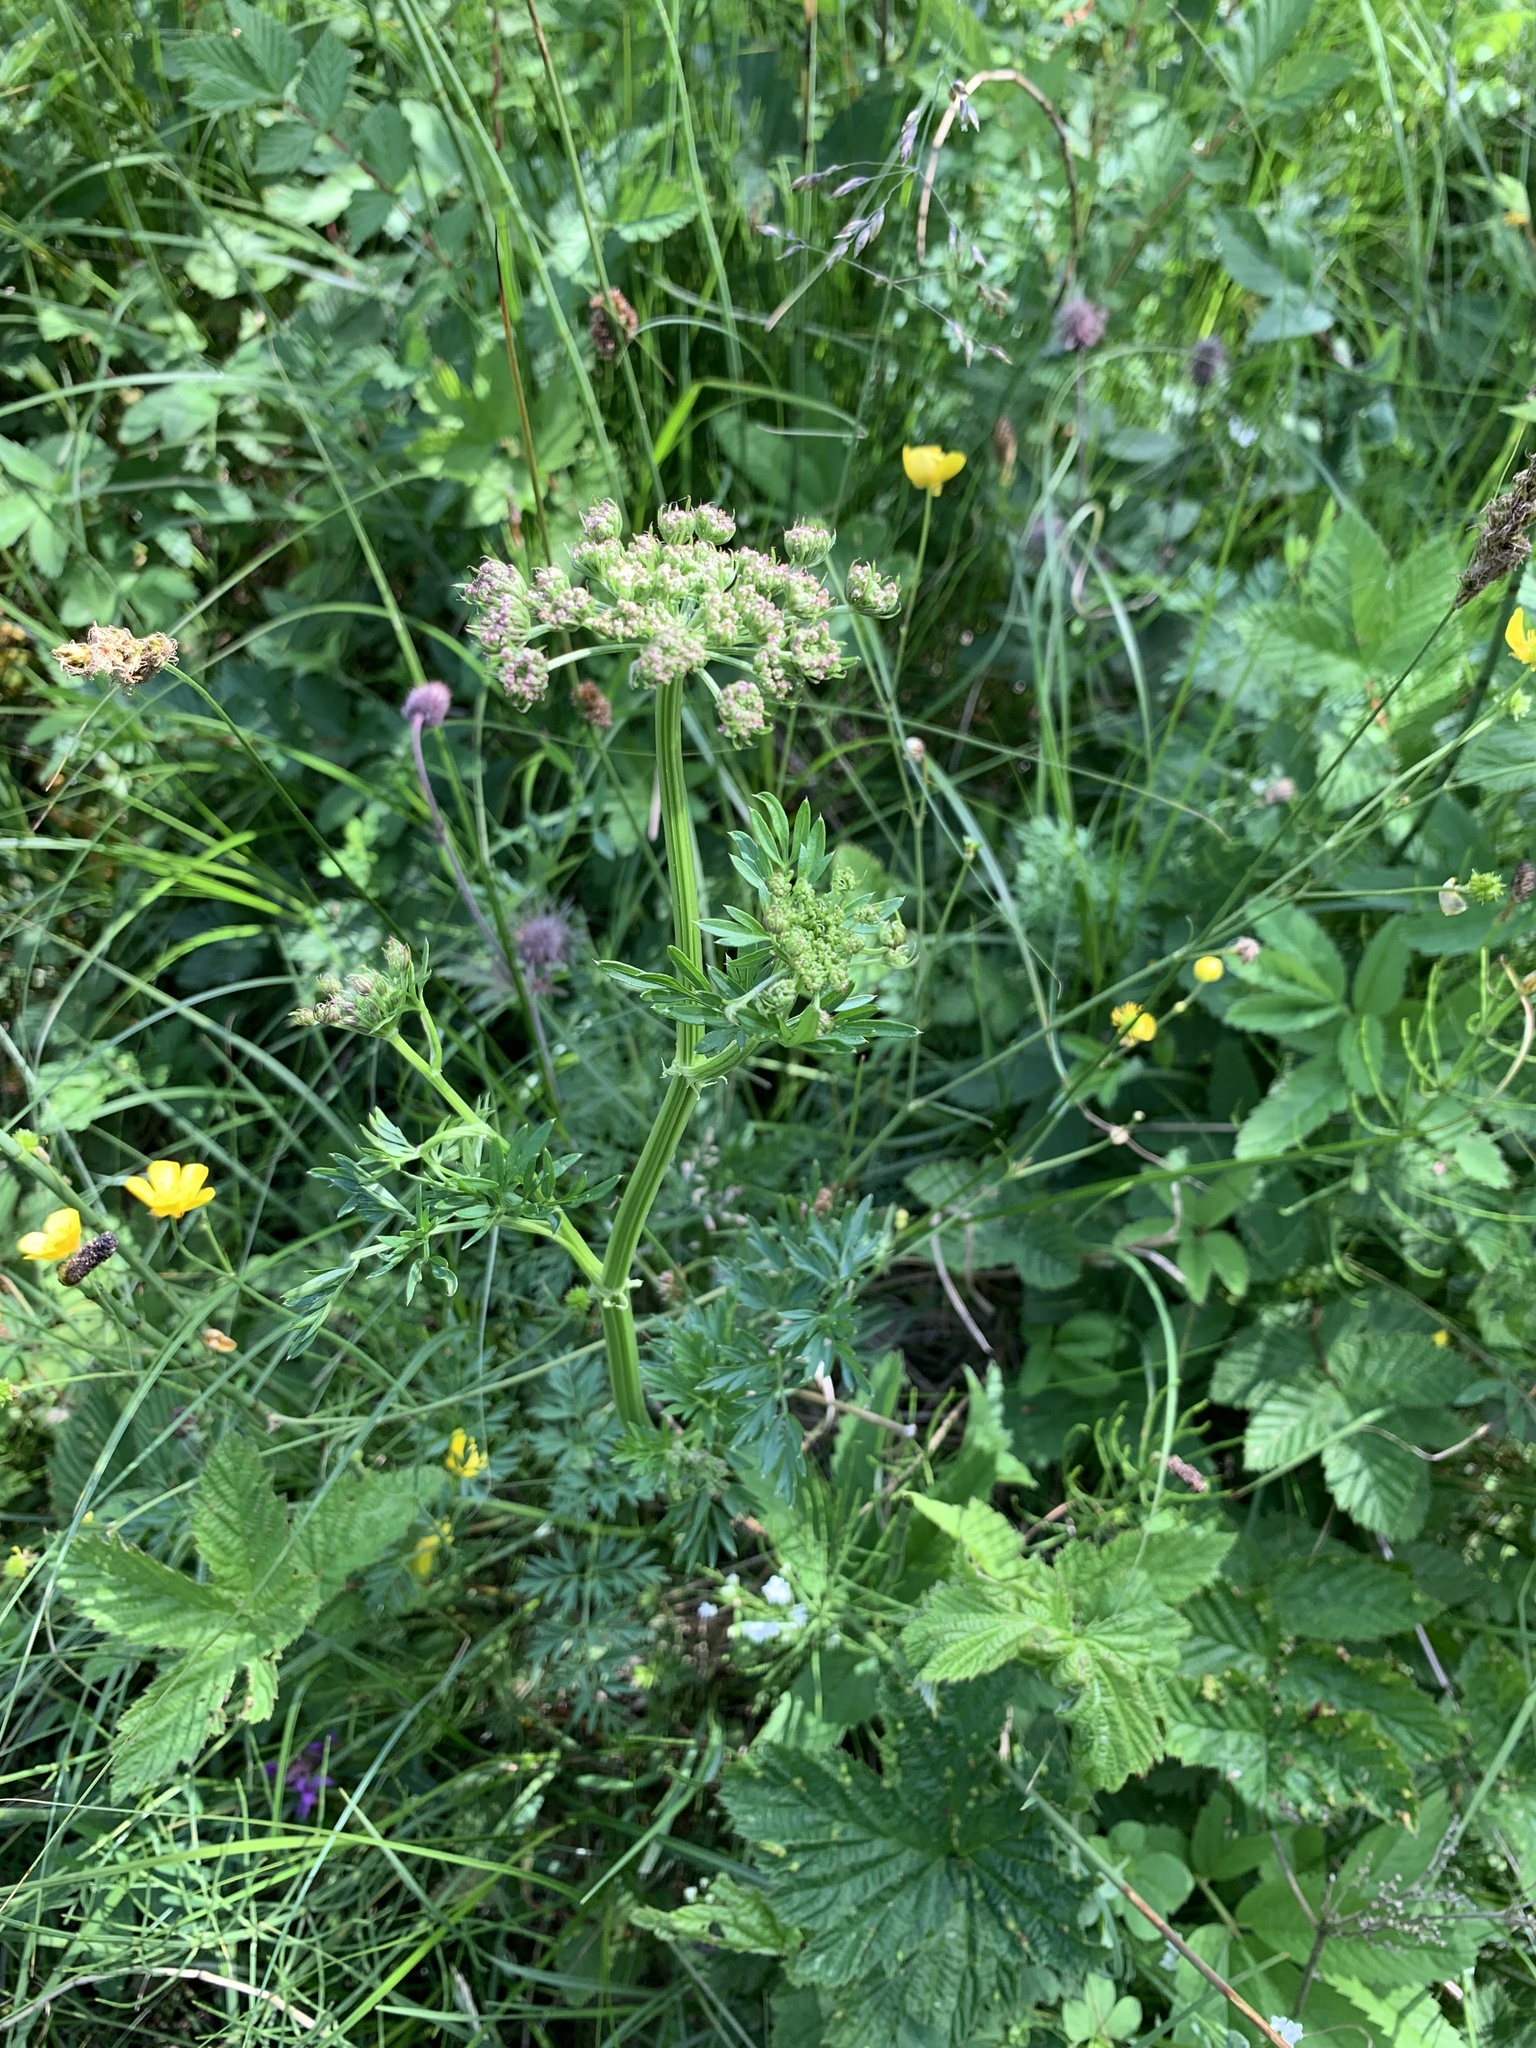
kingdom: Plantae
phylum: Tracheophyta
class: Magnoliopsida
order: Apiales
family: Apiaceae
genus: Selinum
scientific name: Selinum carvifolia
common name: Cambridge milk-parsley
